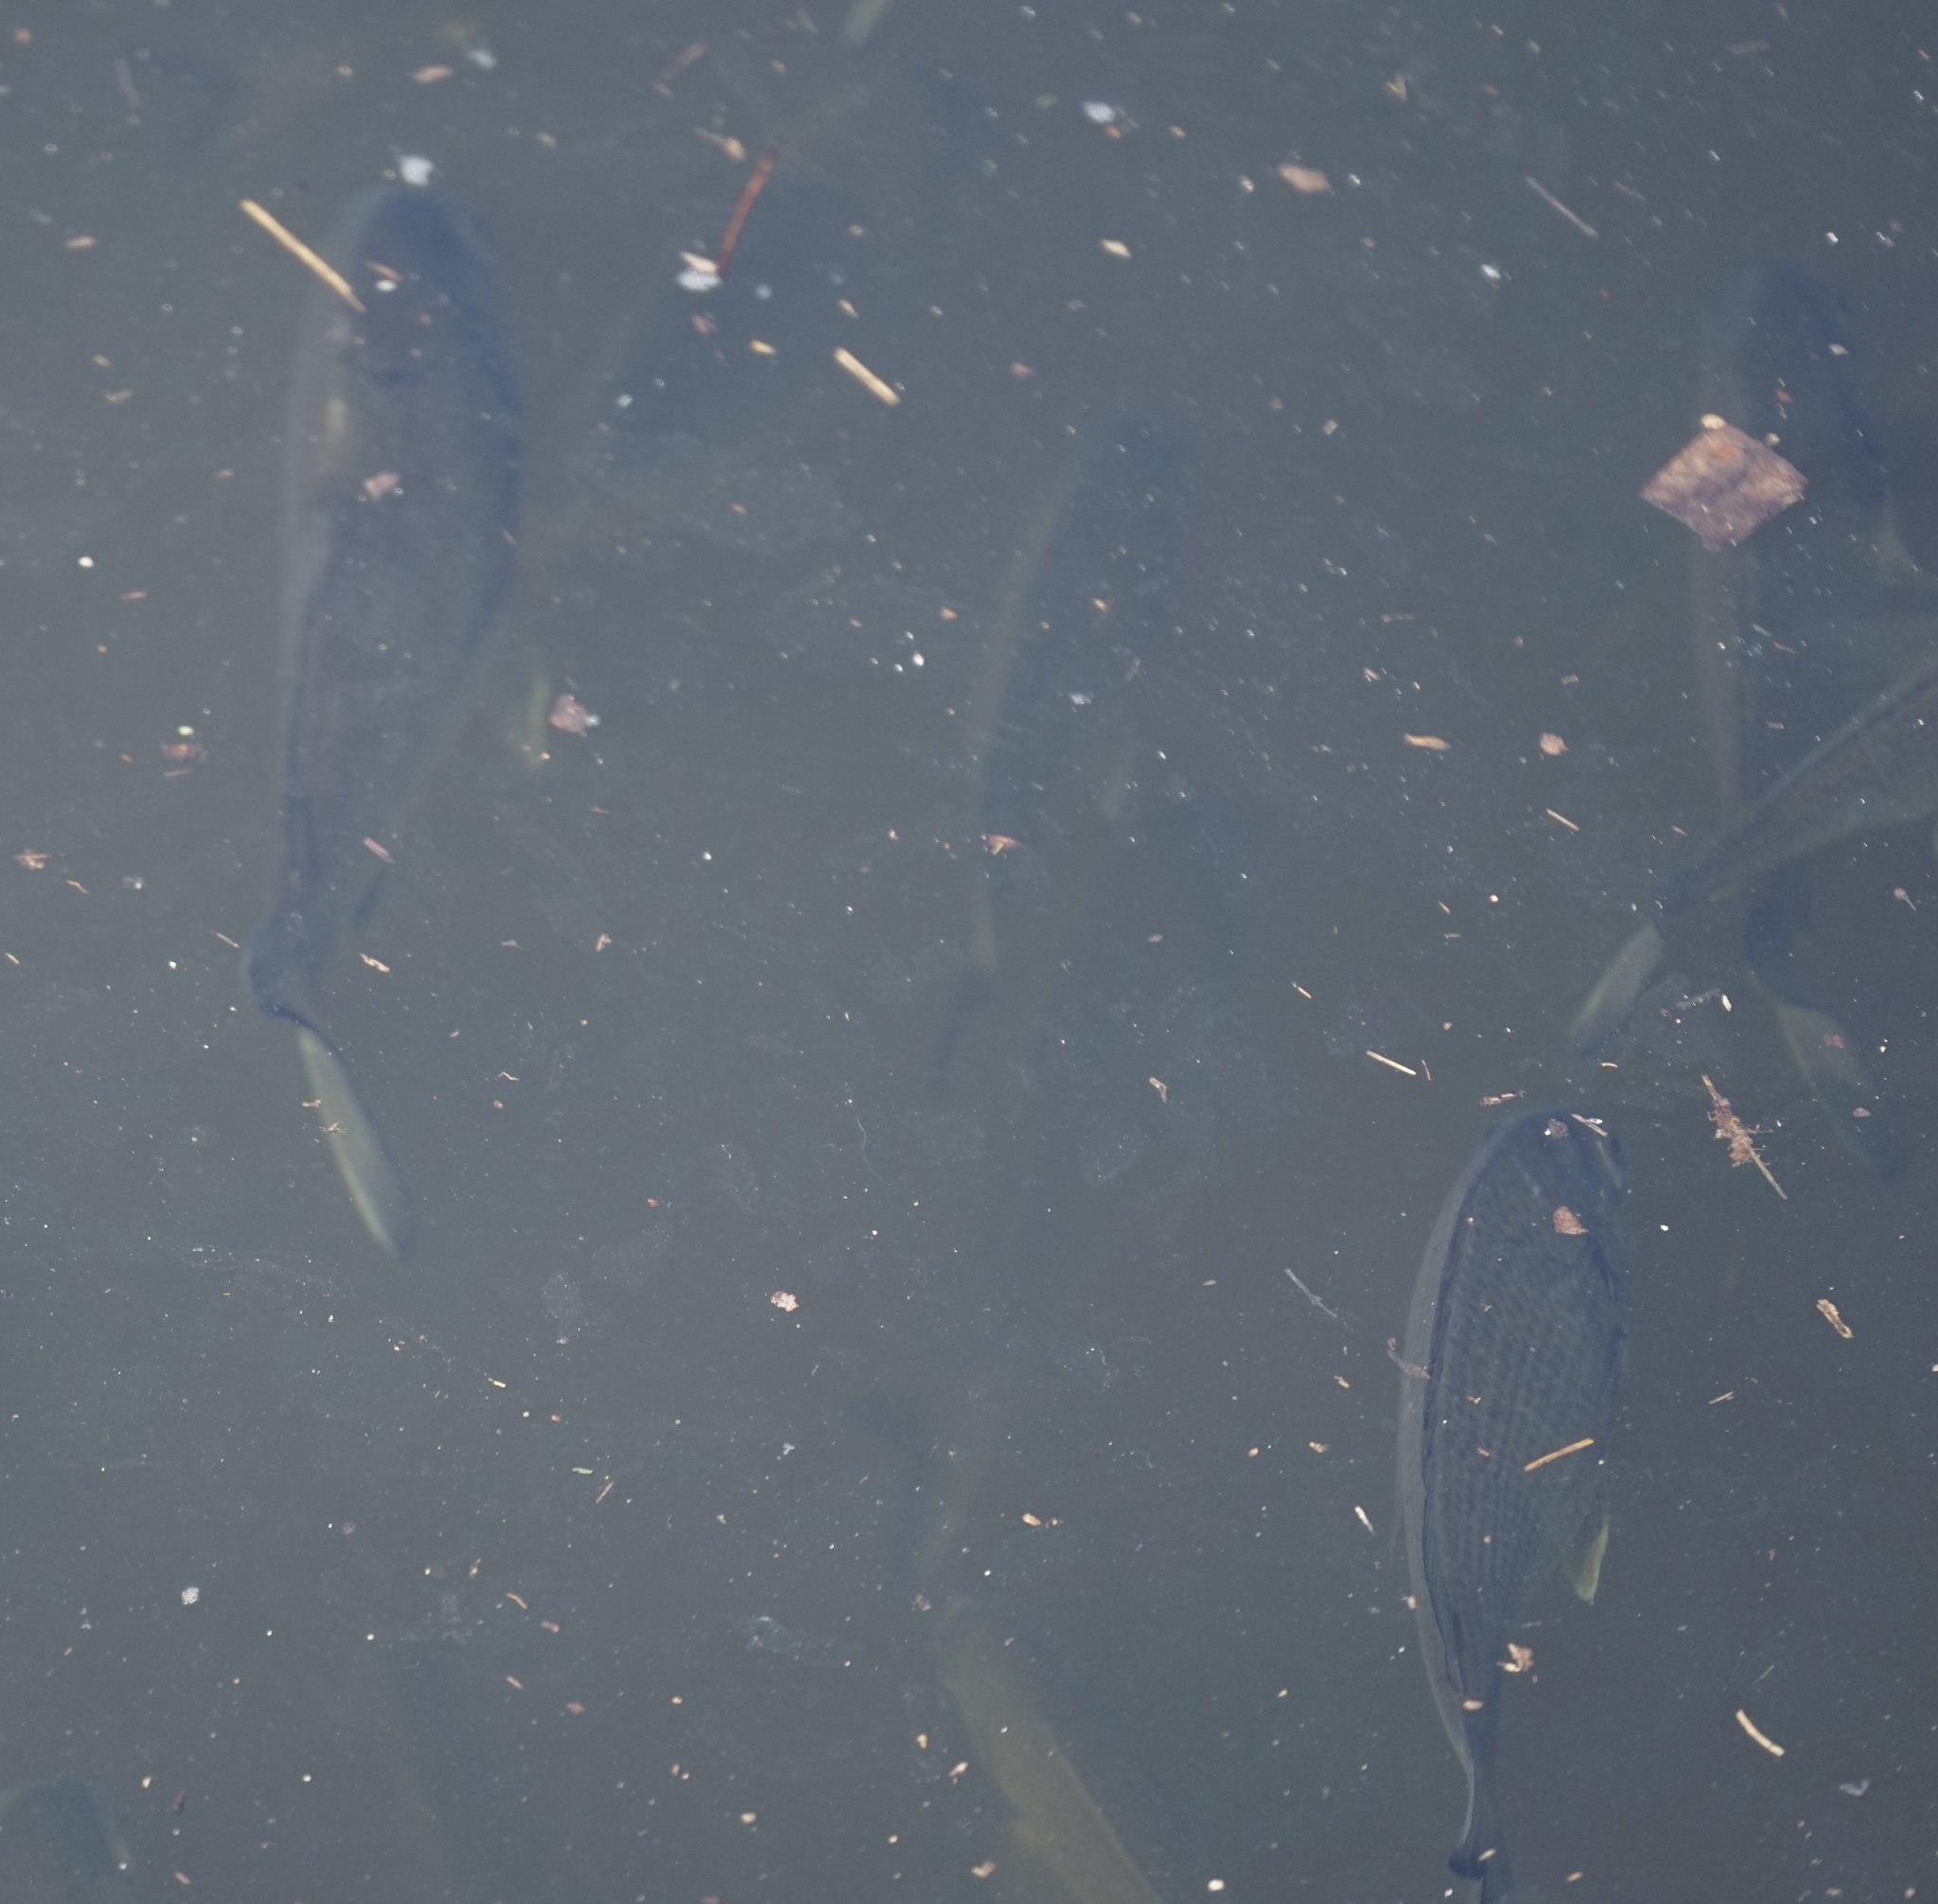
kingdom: Animalia
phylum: Chordata
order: Perciformes
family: Sparidae
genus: Acanthopagrus
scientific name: Acanthopagrus australis
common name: Surf bream
